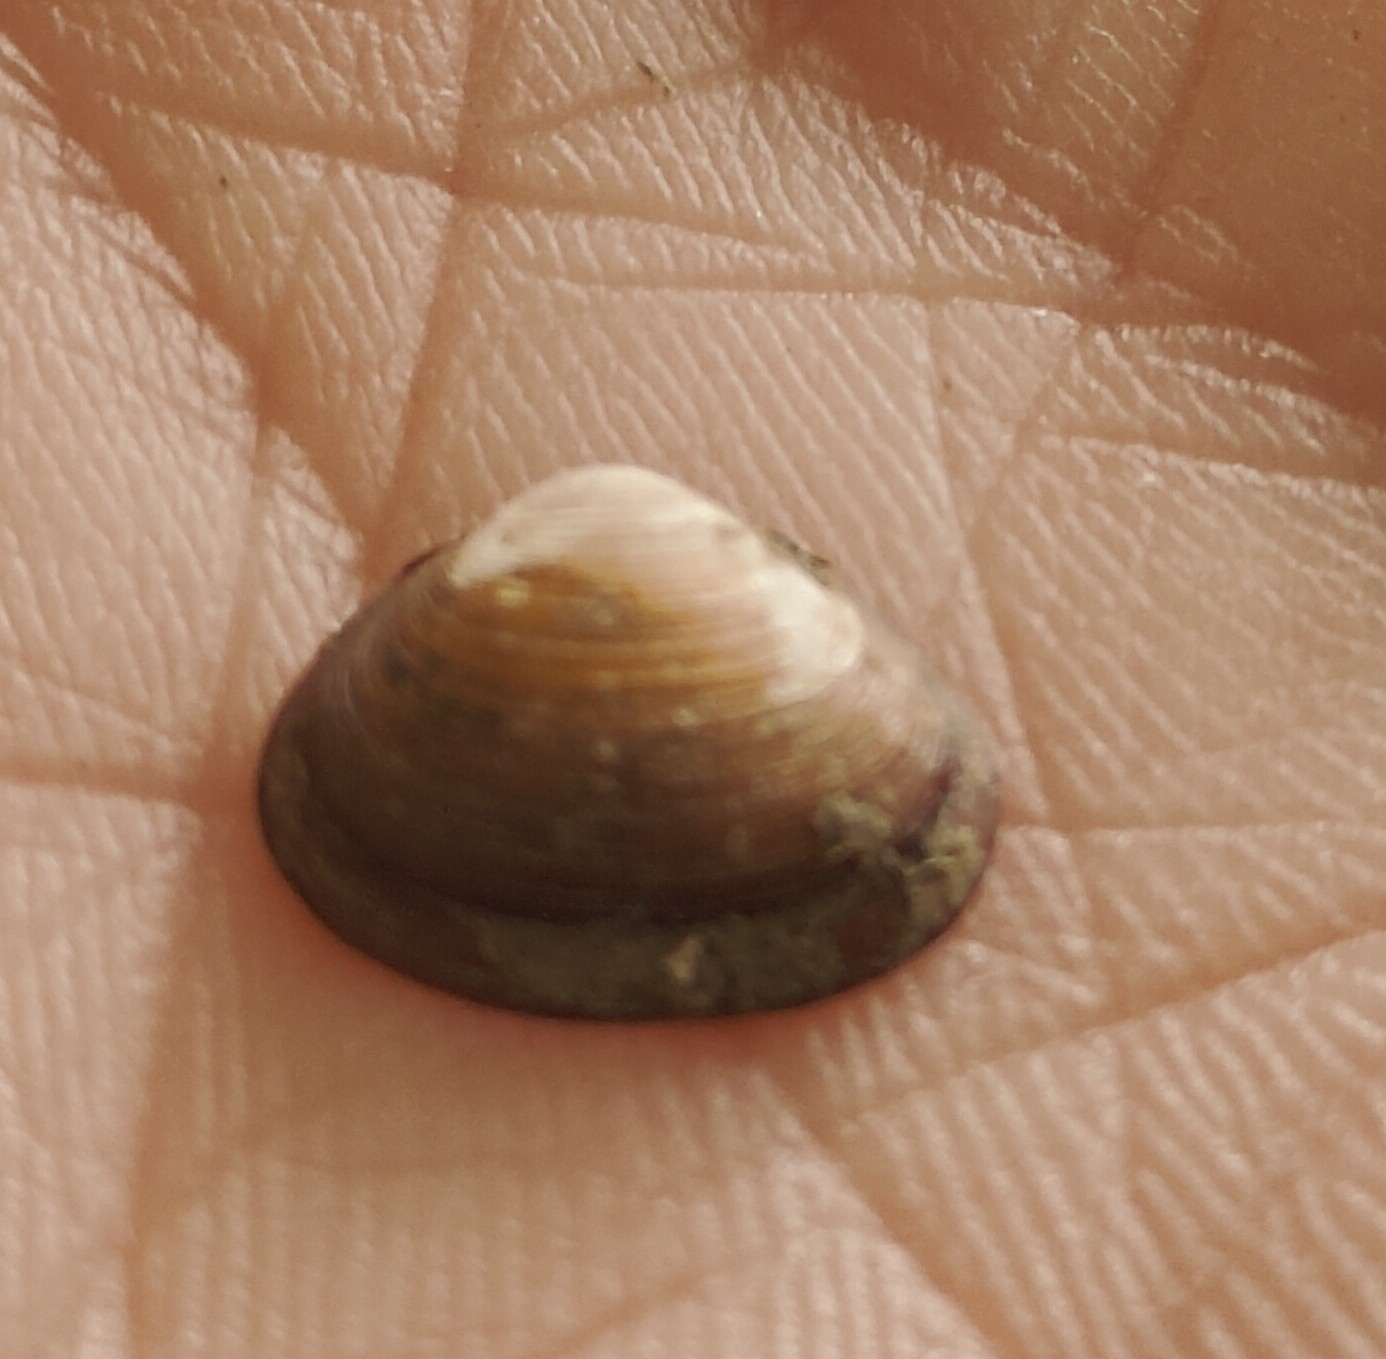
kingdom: Animalia
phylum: Mollusca
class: Bivalvia
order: Sphaeriida
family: Sphaeriidae
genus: Sphaerium
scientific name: Sphaerium striatinum
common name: Striated fingernailclam
